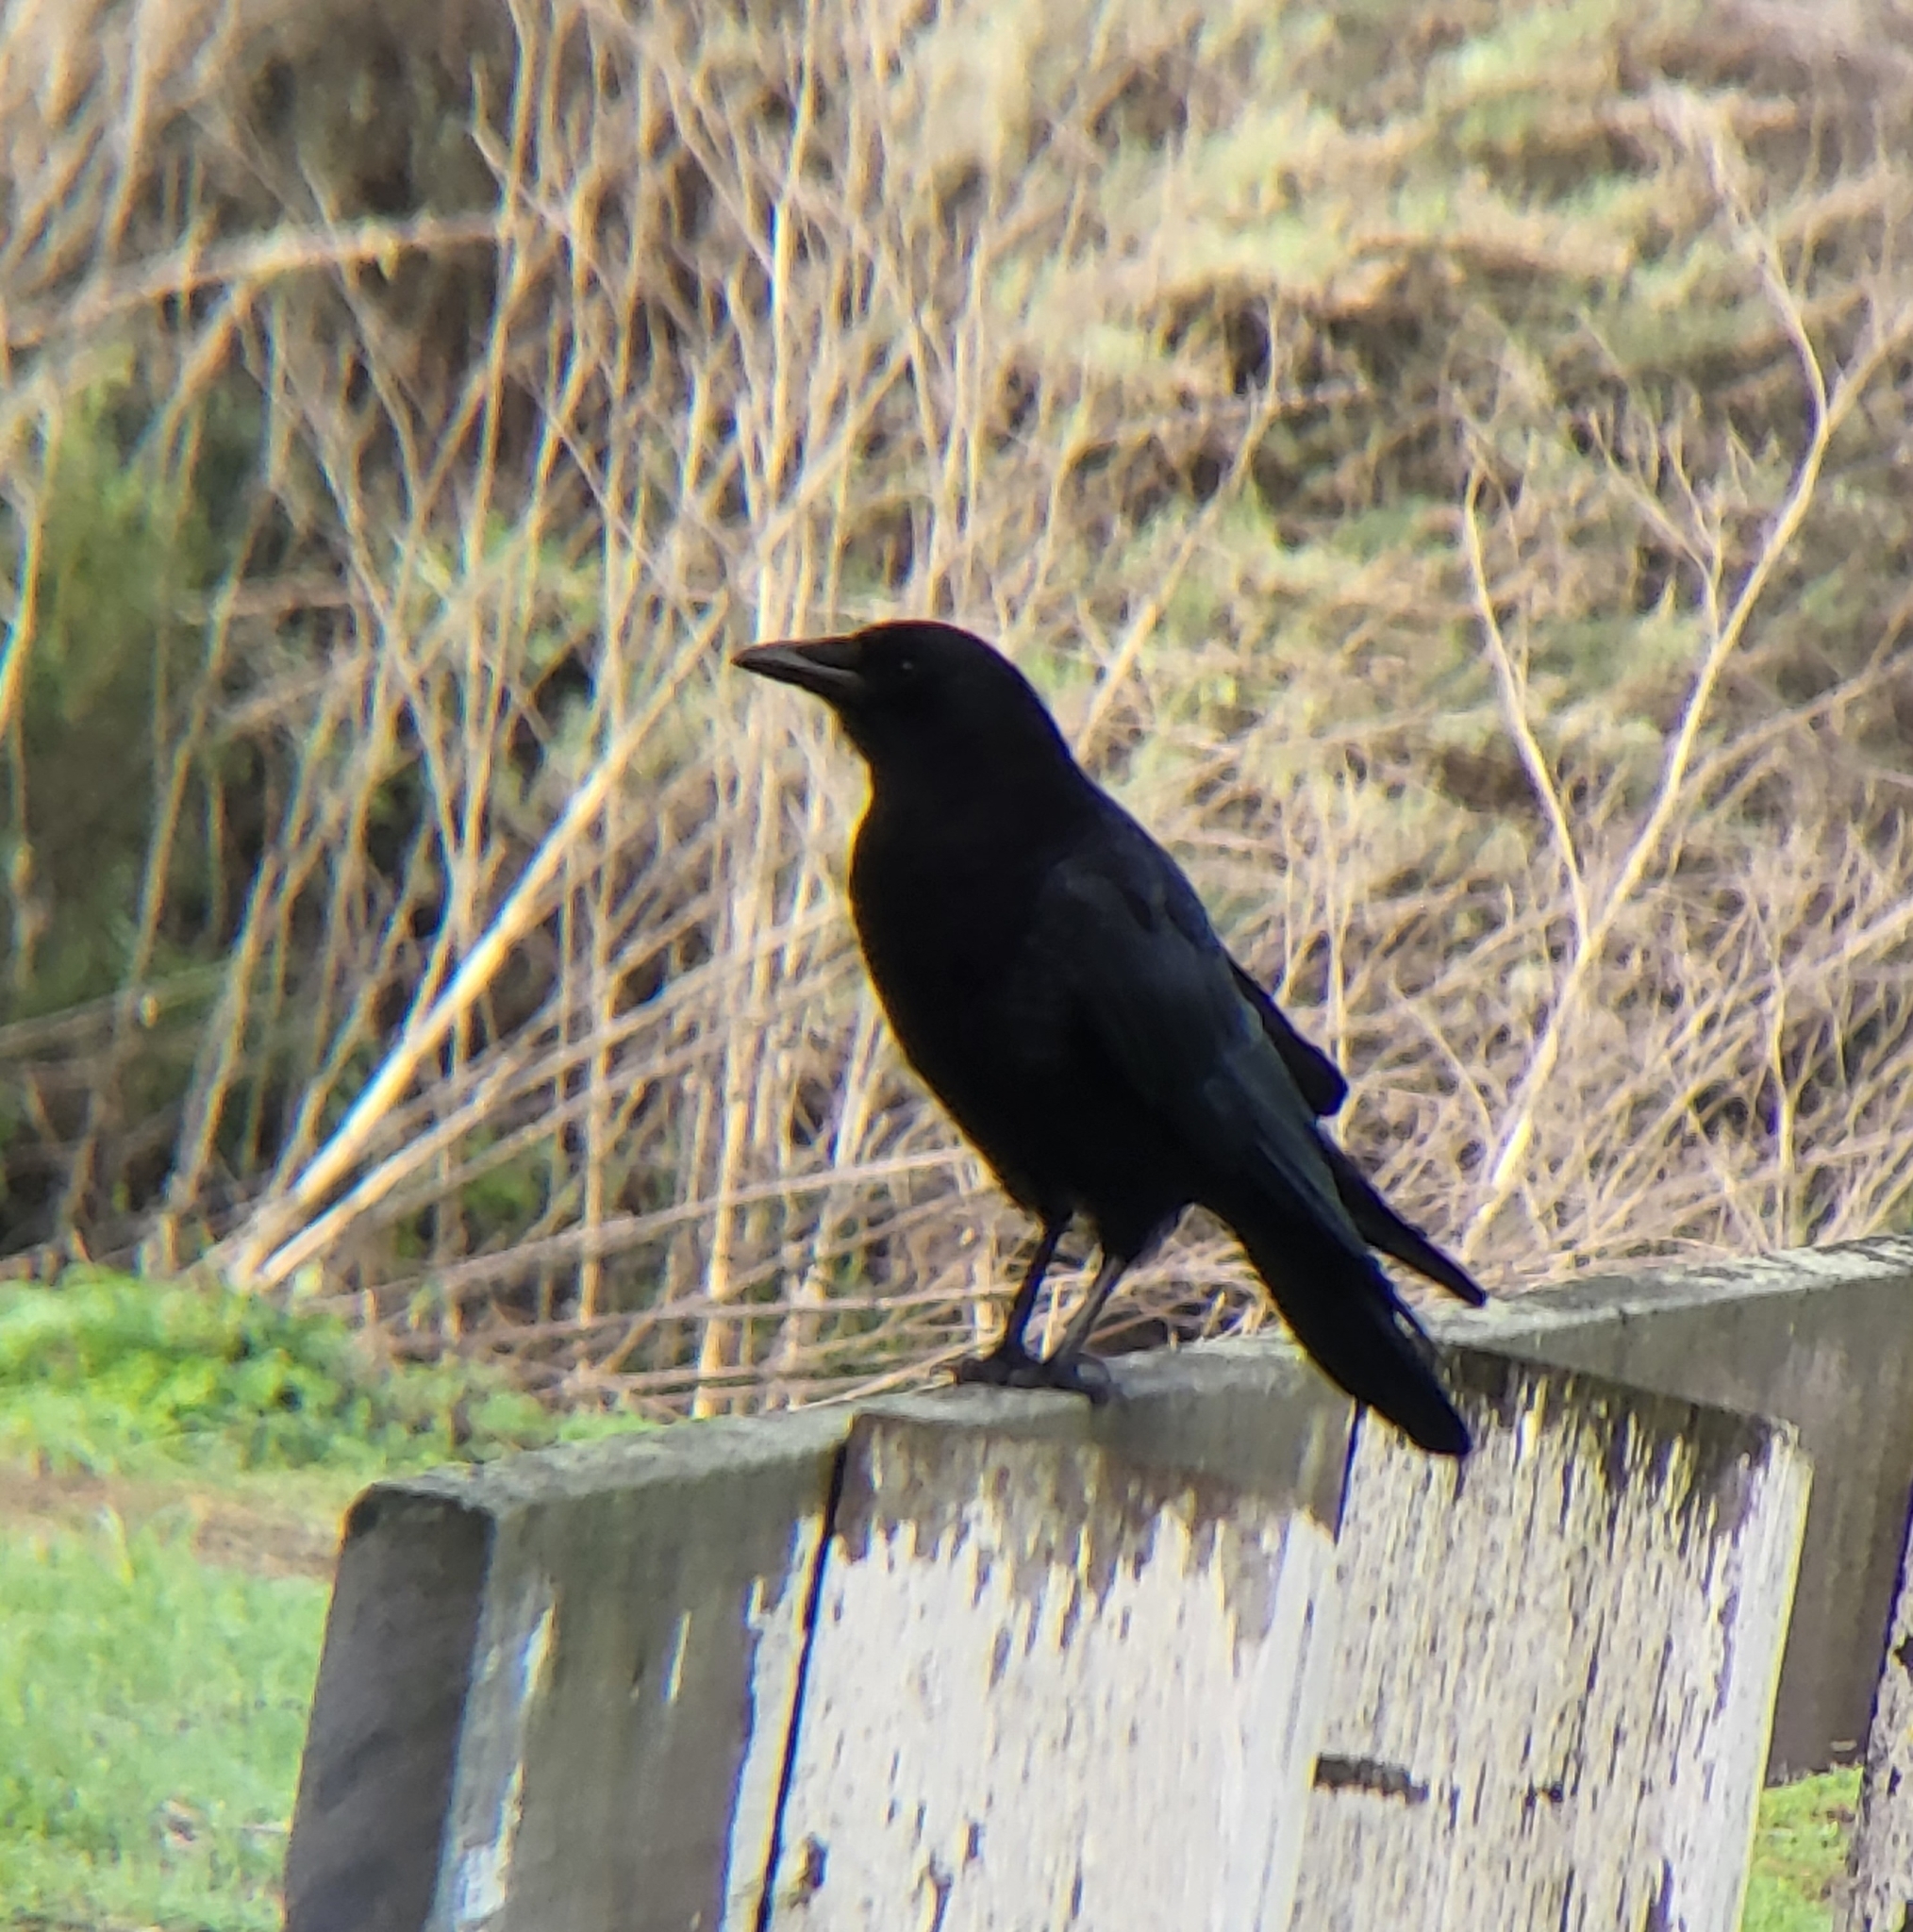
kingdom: Animalia
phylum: Chordata
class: Aves
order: Passeriformes
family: Corvidae
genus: Corvus
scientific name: Corvus brachyrhynchos
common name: American crow
